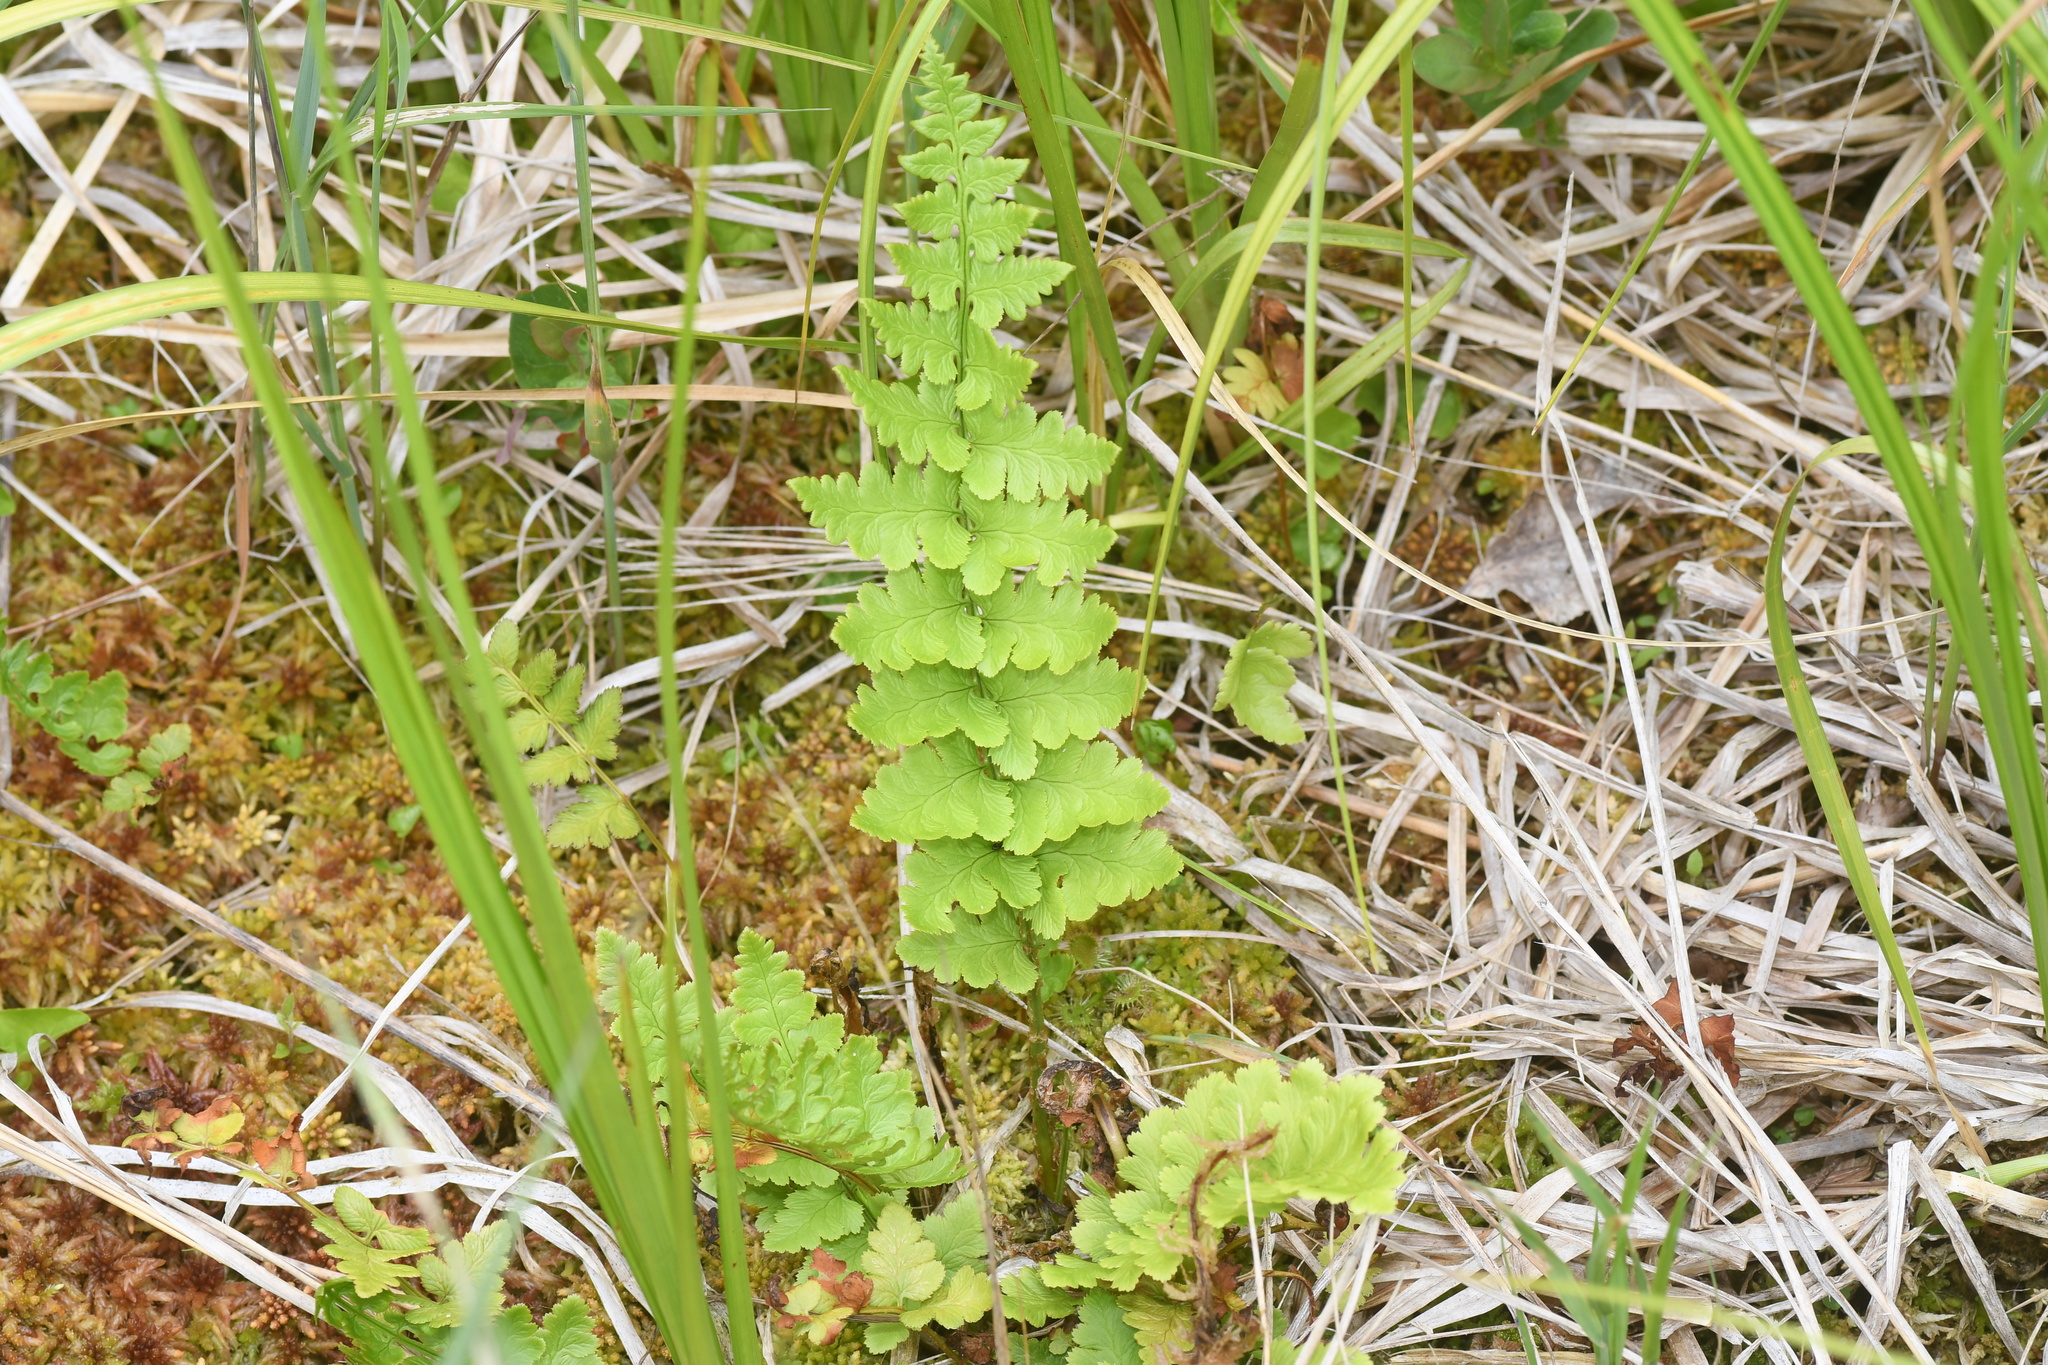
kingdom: Plantae
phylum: Tracheophyta
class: Polypodiopsida
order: Polypodiales
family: Dryopteridaceae
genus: Dryopteris
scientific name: Dryopteris cristata
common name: Crested wood fern
